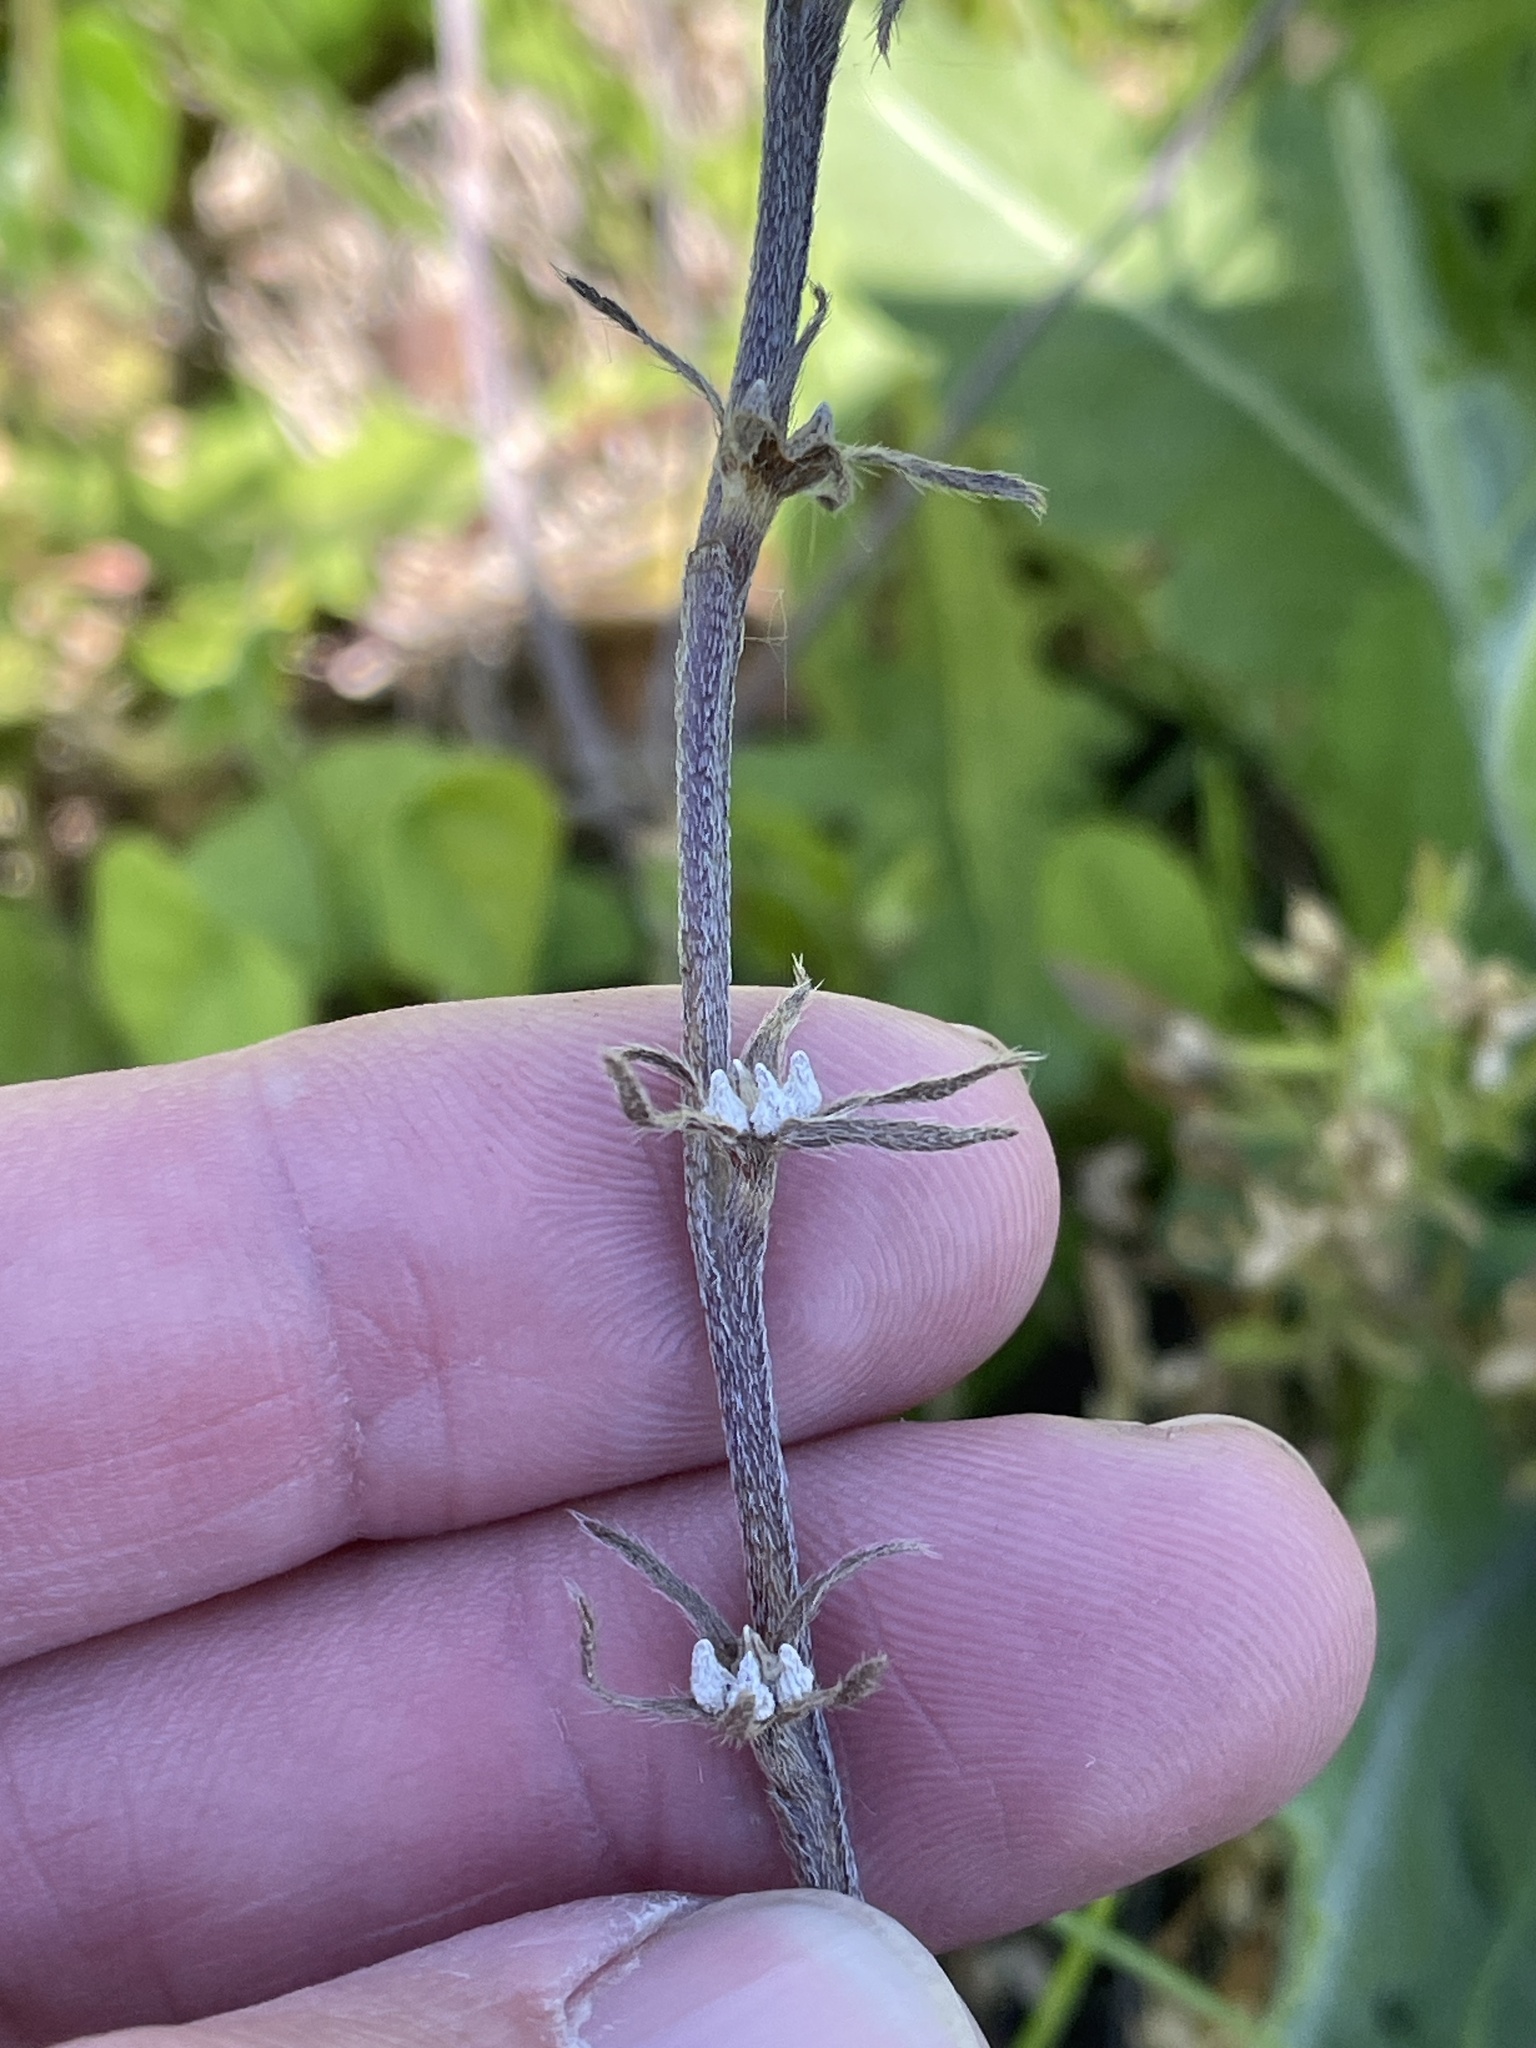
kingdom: Plantae
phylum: Tracheophyta
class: Magnoliopsida
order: Boraginales
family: Boraginaceae
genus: Buglossoides
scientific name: Buglossoides arvensis
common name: Corn gromwell
